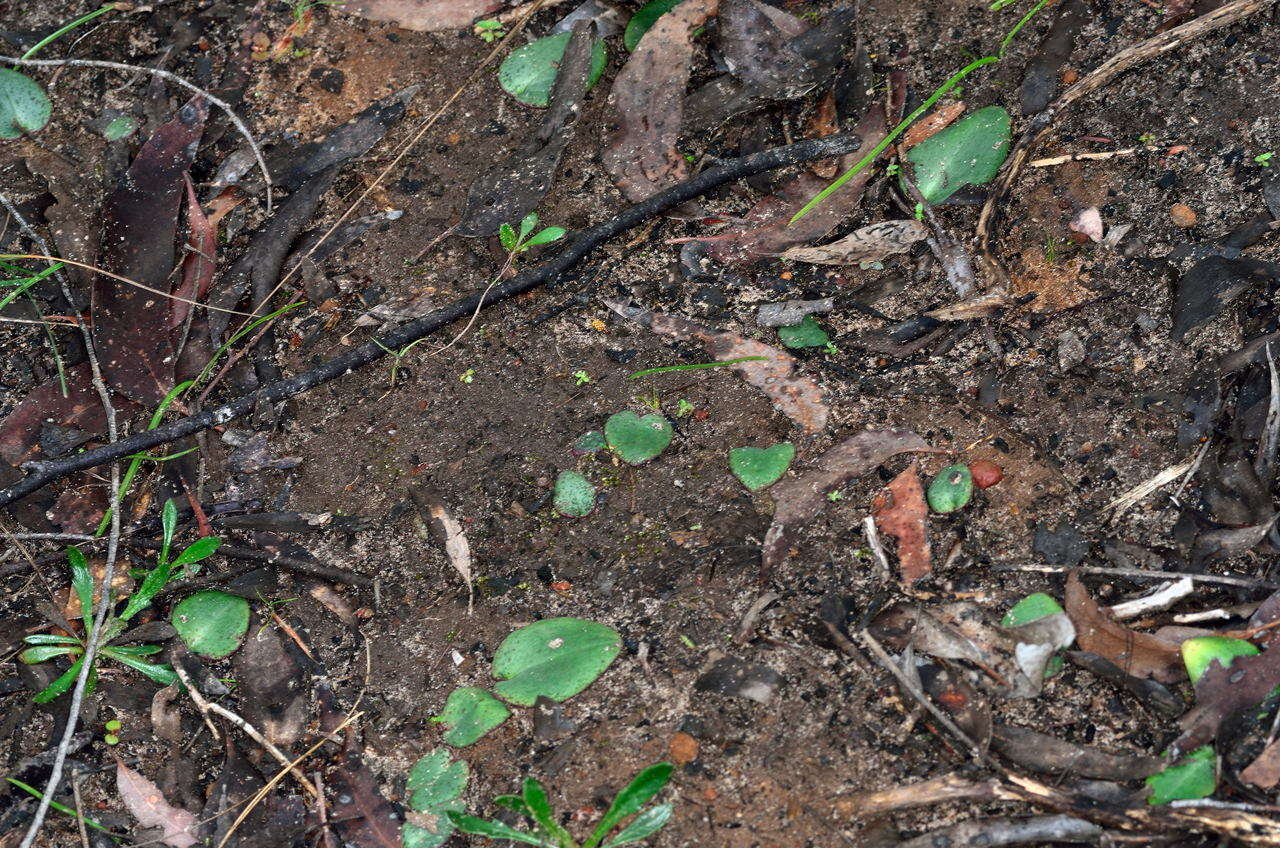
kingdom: Plantae
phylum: Tracheophyta
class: Liliopsida
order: Asparagales
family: Orchidaceae
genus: Pyrorchis
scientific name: Pyrorchis nigricans
